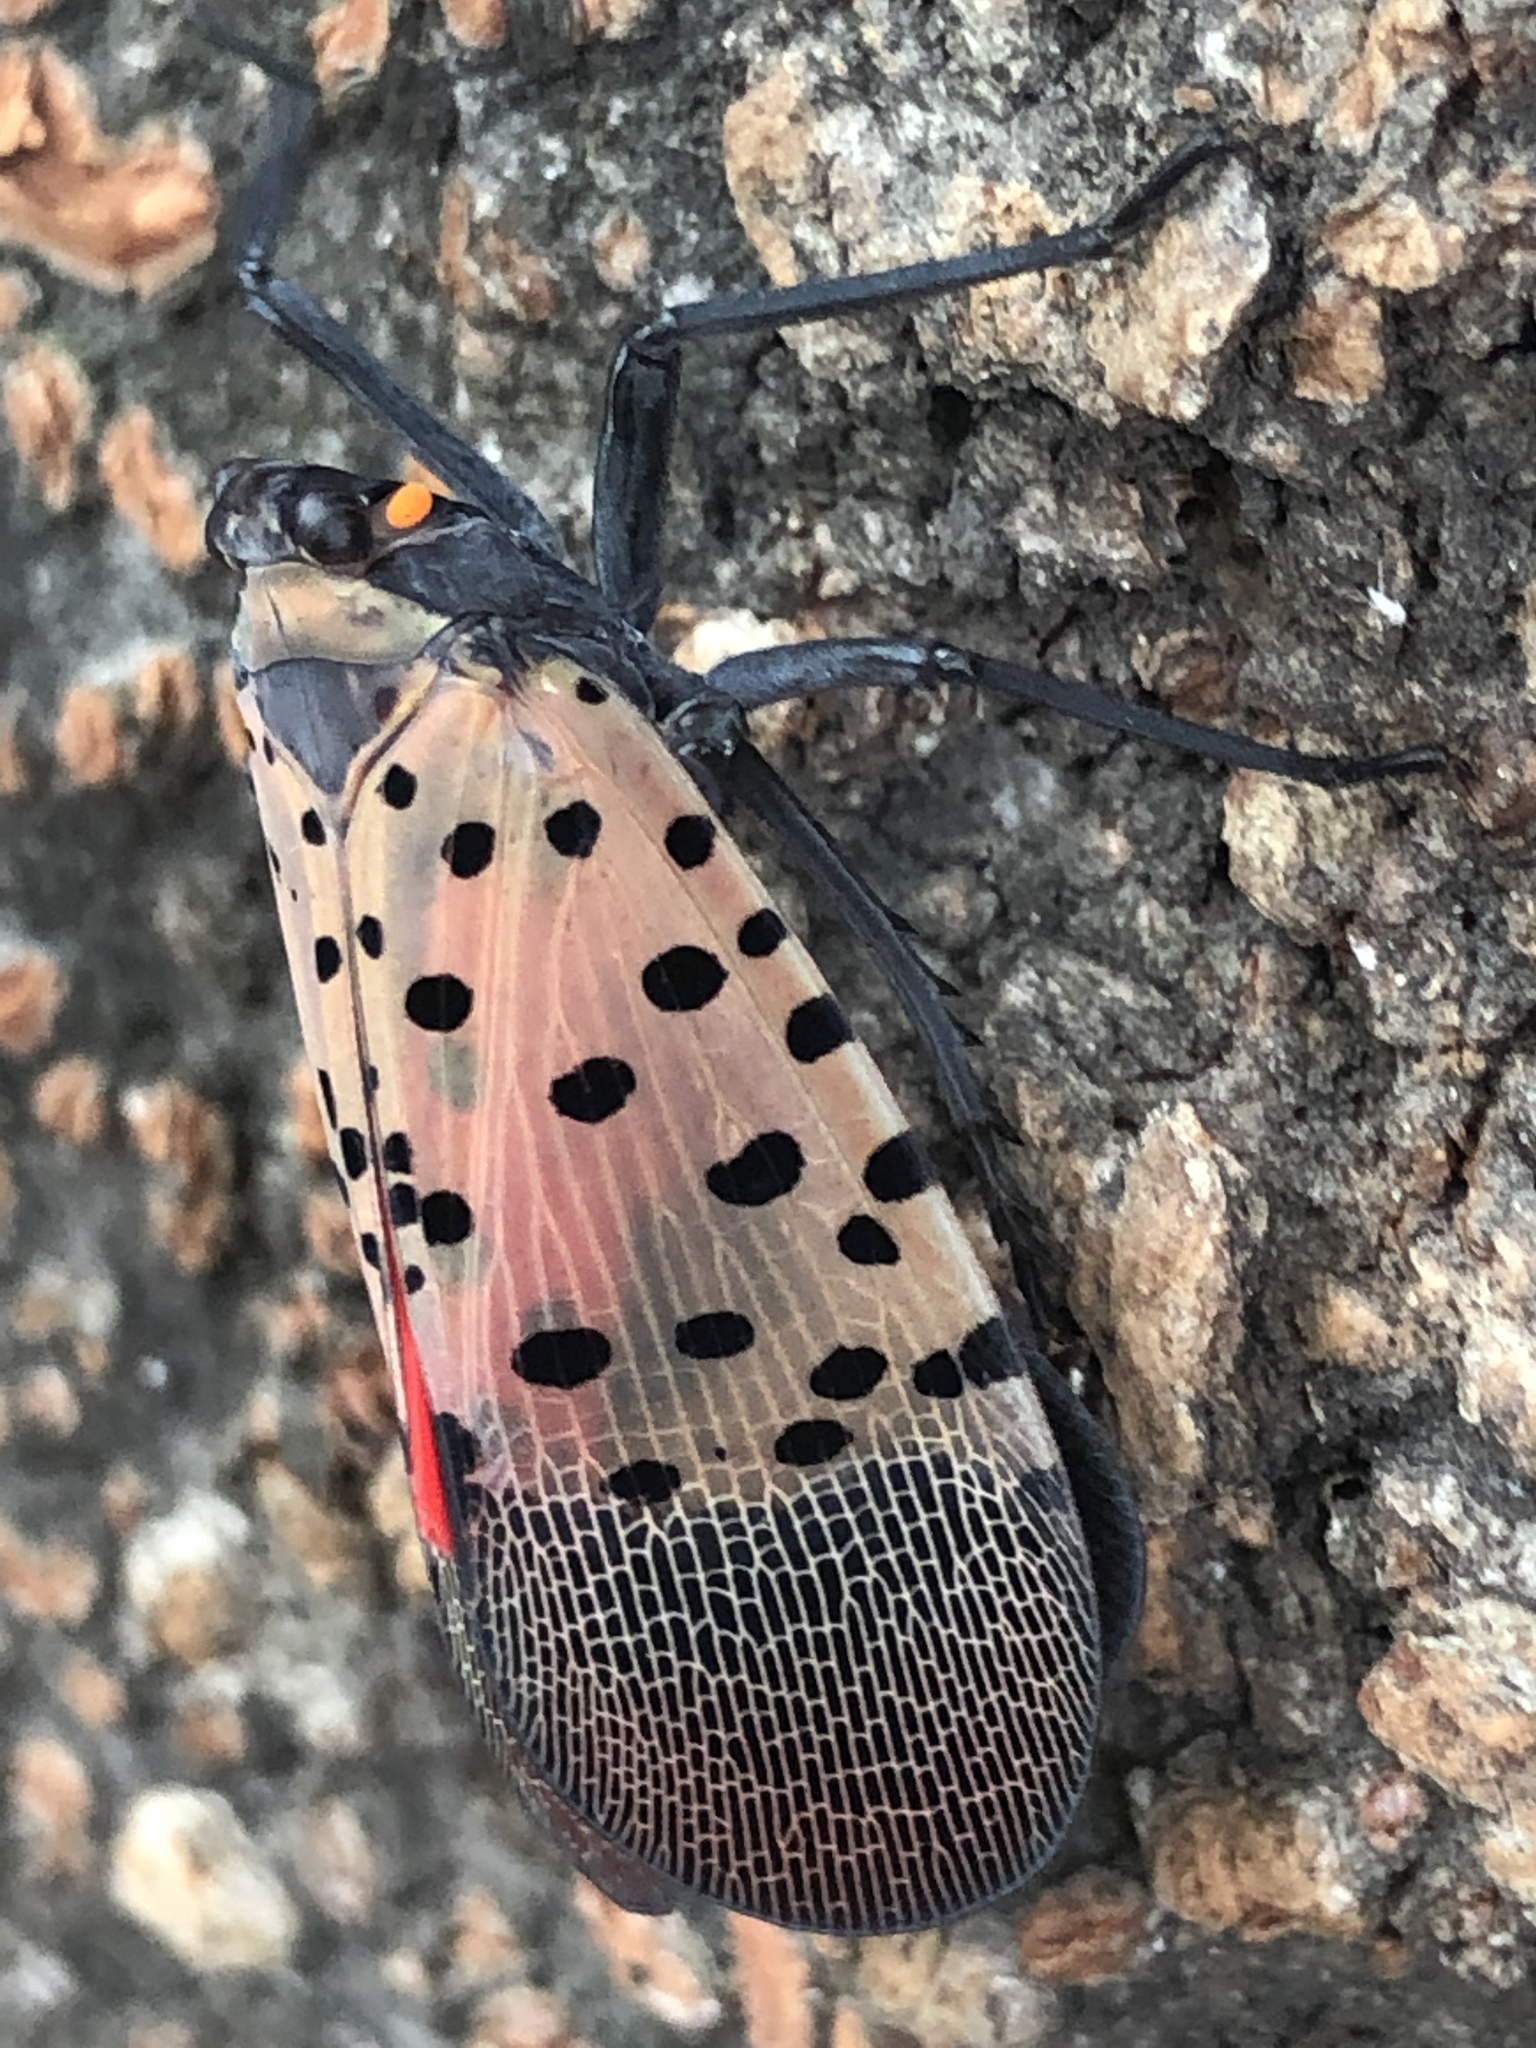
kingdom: Animalia
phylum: Arthropoda
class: Insecta
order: Hemiptera
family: Fulgoridae
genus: Lycorma
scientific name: Lycorma delicatula
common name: Spotted lanternfly
